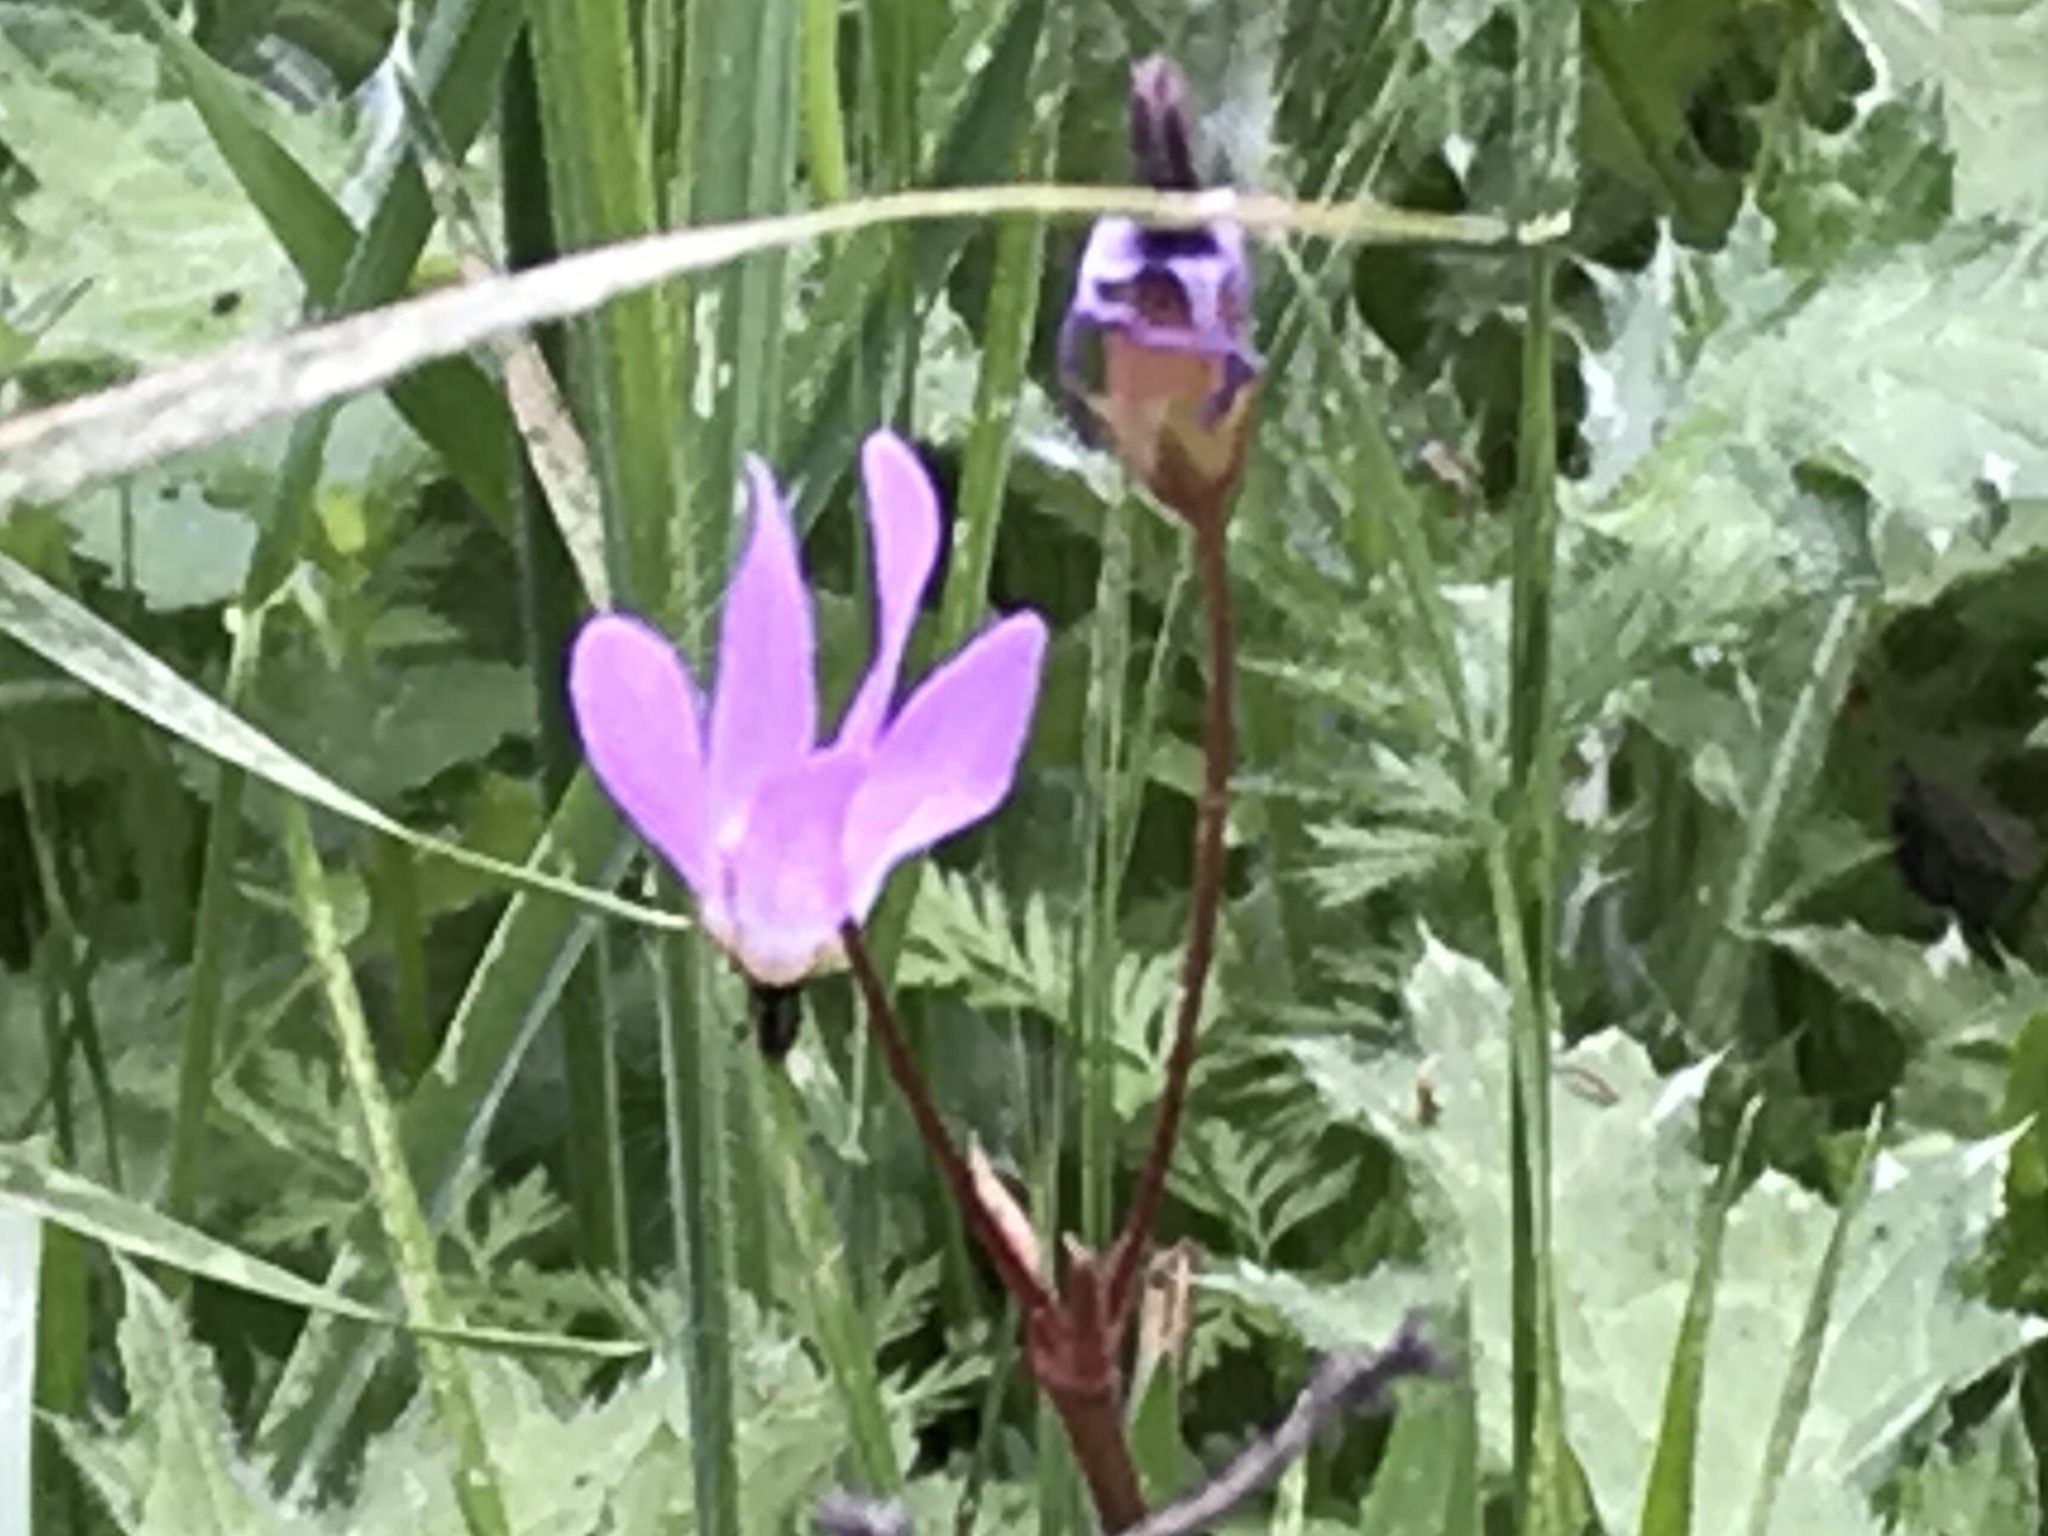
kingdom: Plantae
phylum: Tracheophyta
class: Magnoliopsida
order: Ericales
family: Primulaceae
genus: Dodecatheon
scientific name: Dodecatheon hendersonii
